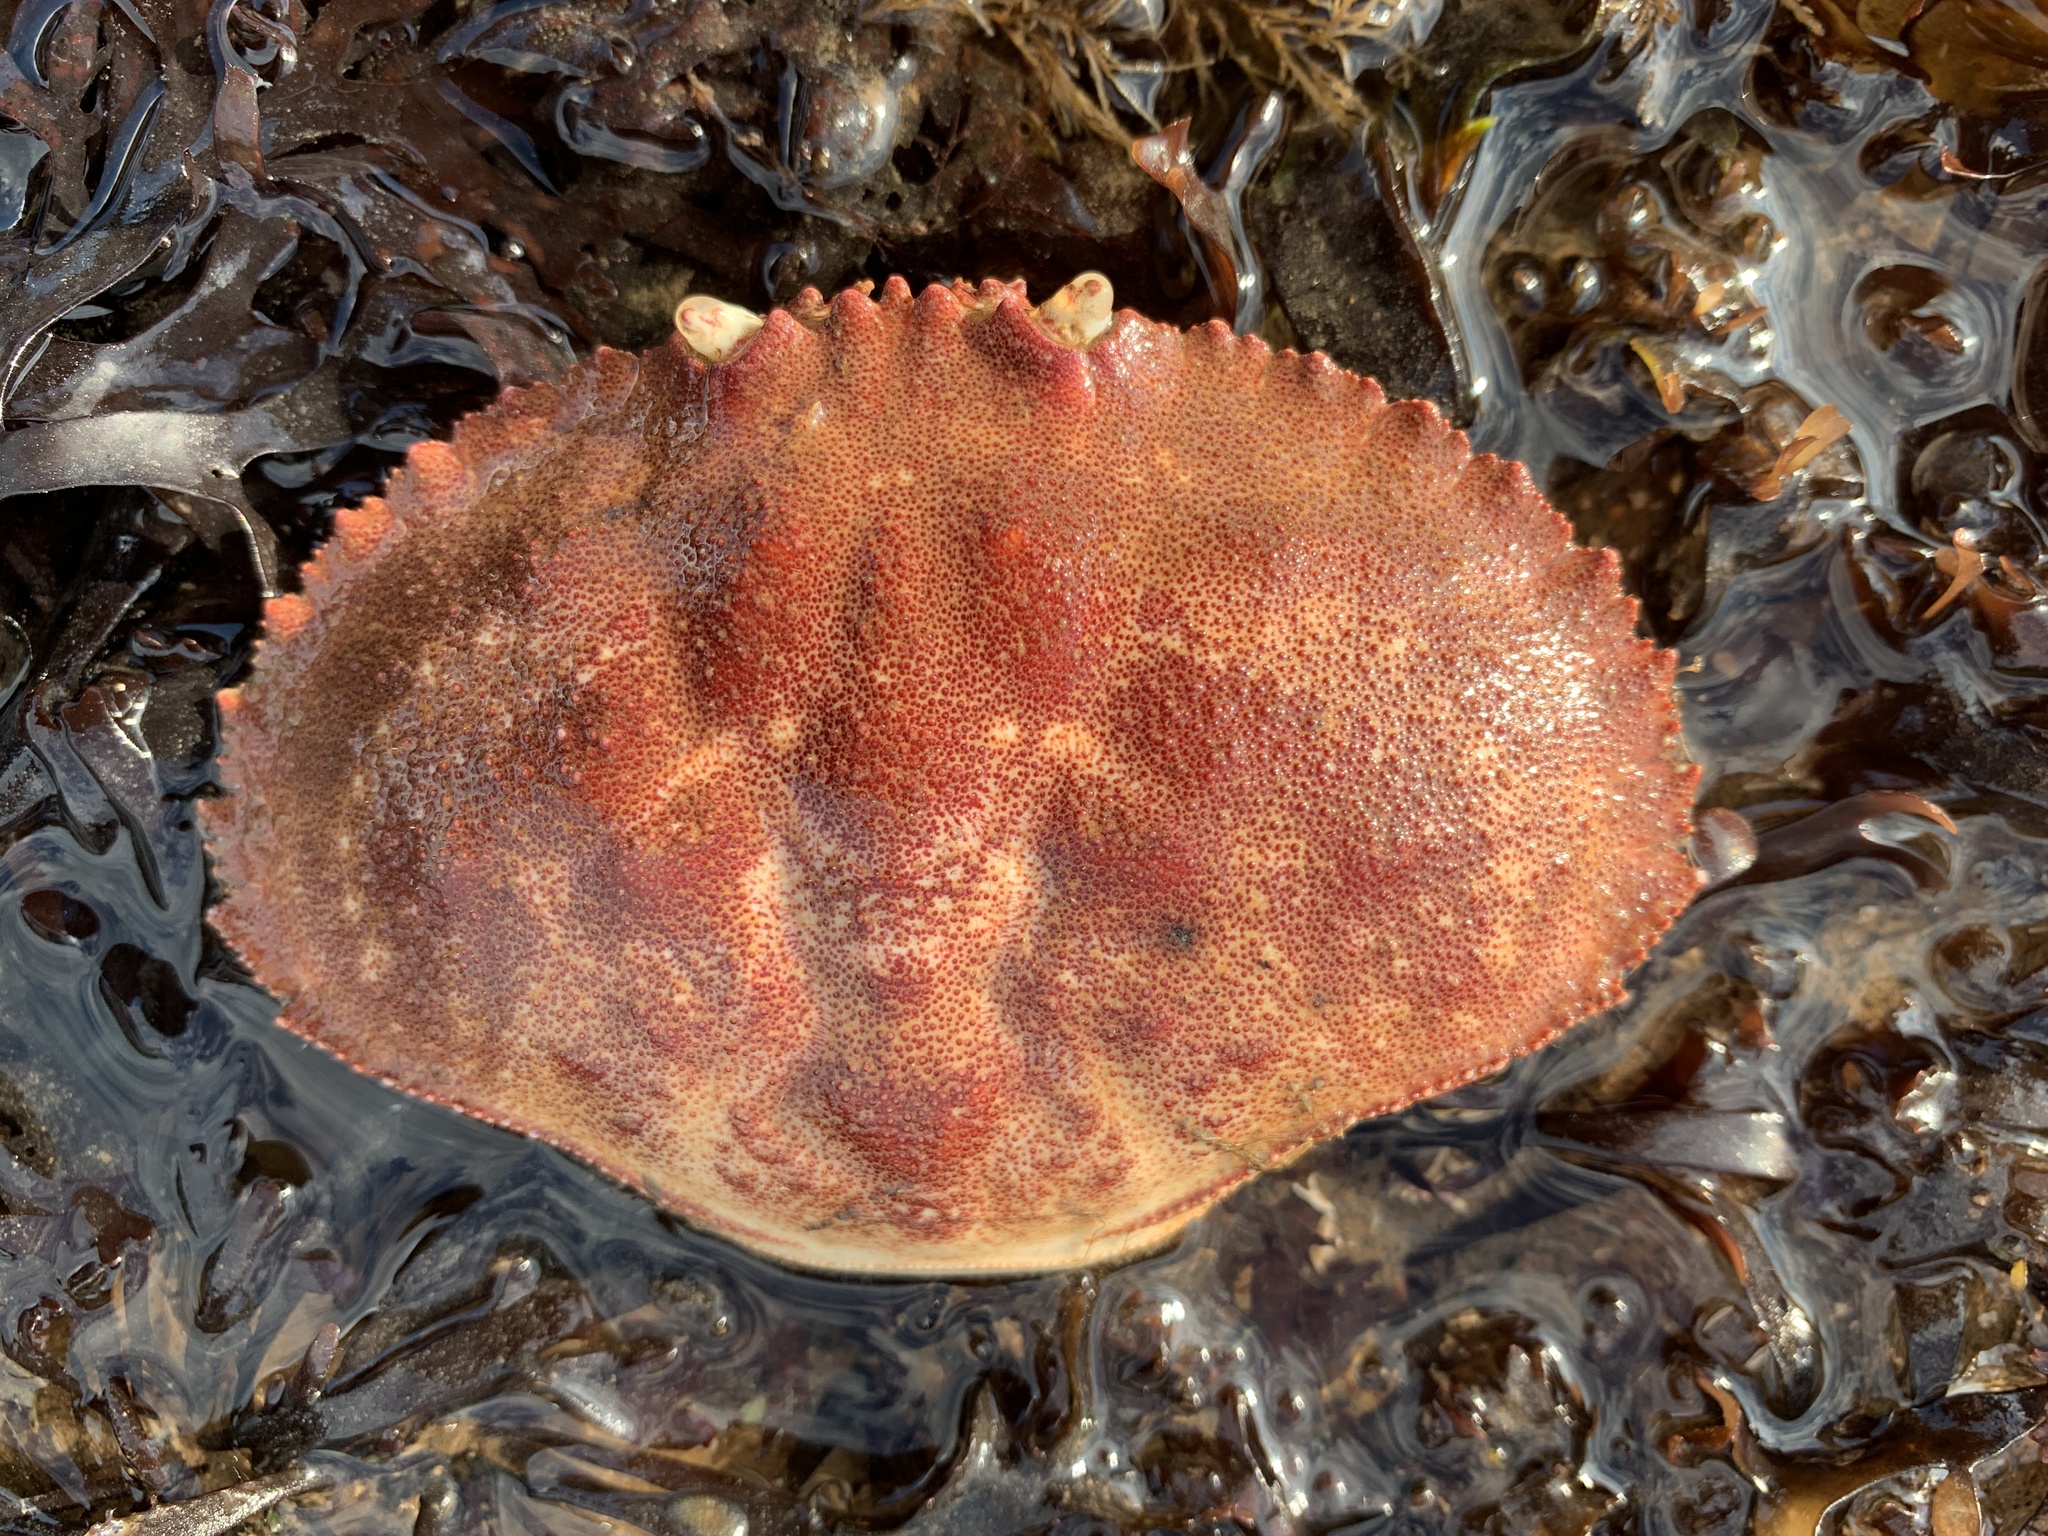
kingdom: Animalia
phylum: Arthropoda
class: Malacostraca
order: Decapoda
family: Cancridae
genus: Cancer
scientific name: Cancer borealis
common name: Jonah crab
